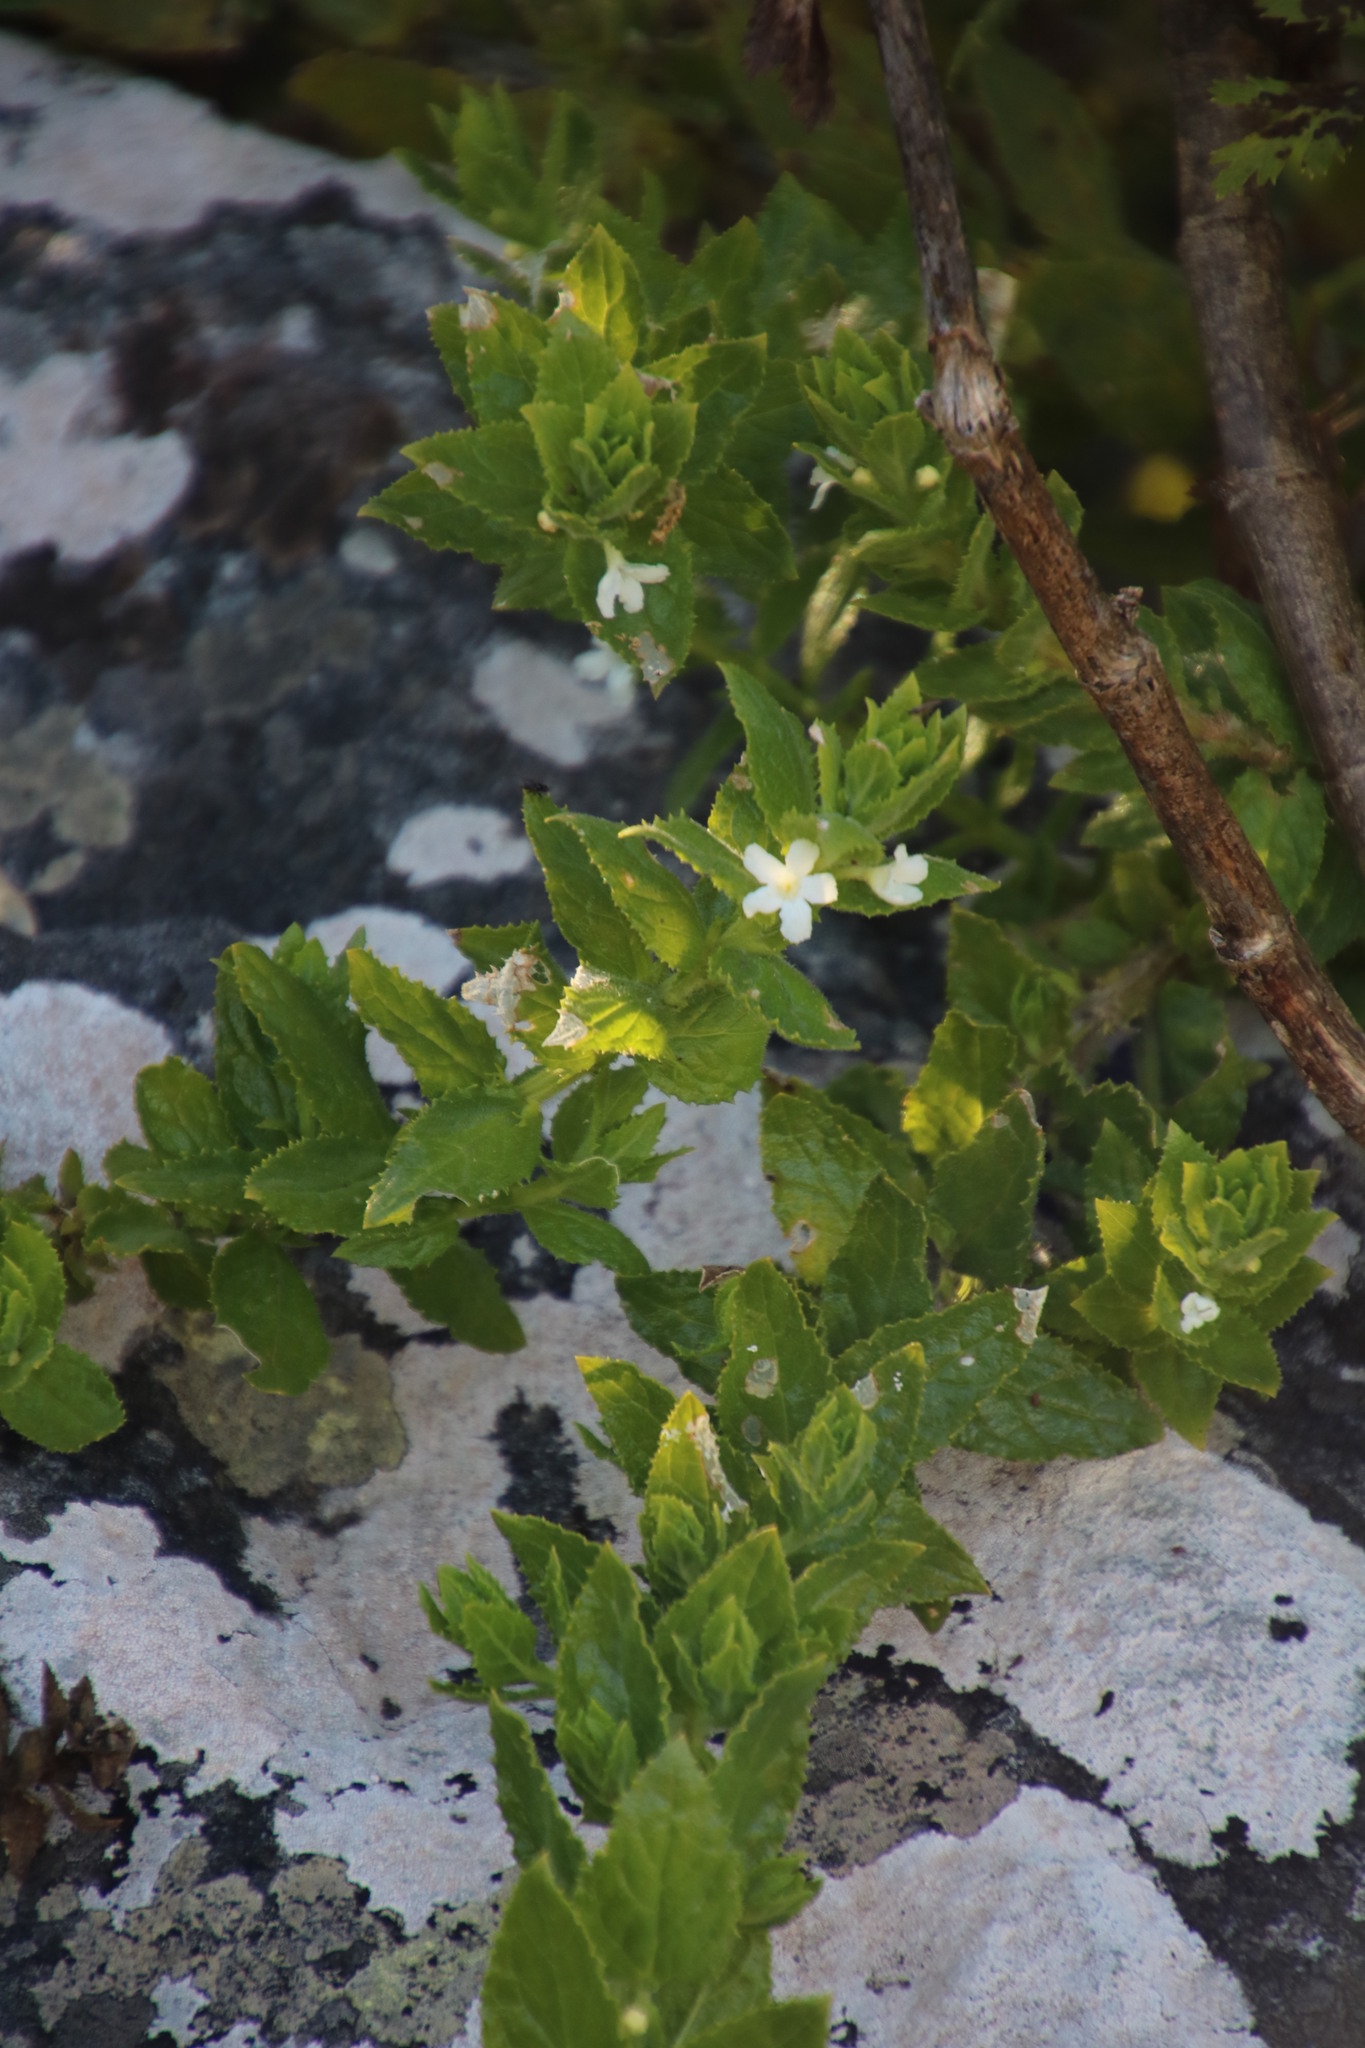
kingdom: Plantae
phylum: Tracheophyta
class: Magnoliopsida
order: Lamiales
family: Scrophulariaceae
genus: Oftia
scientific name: Oftia africana
